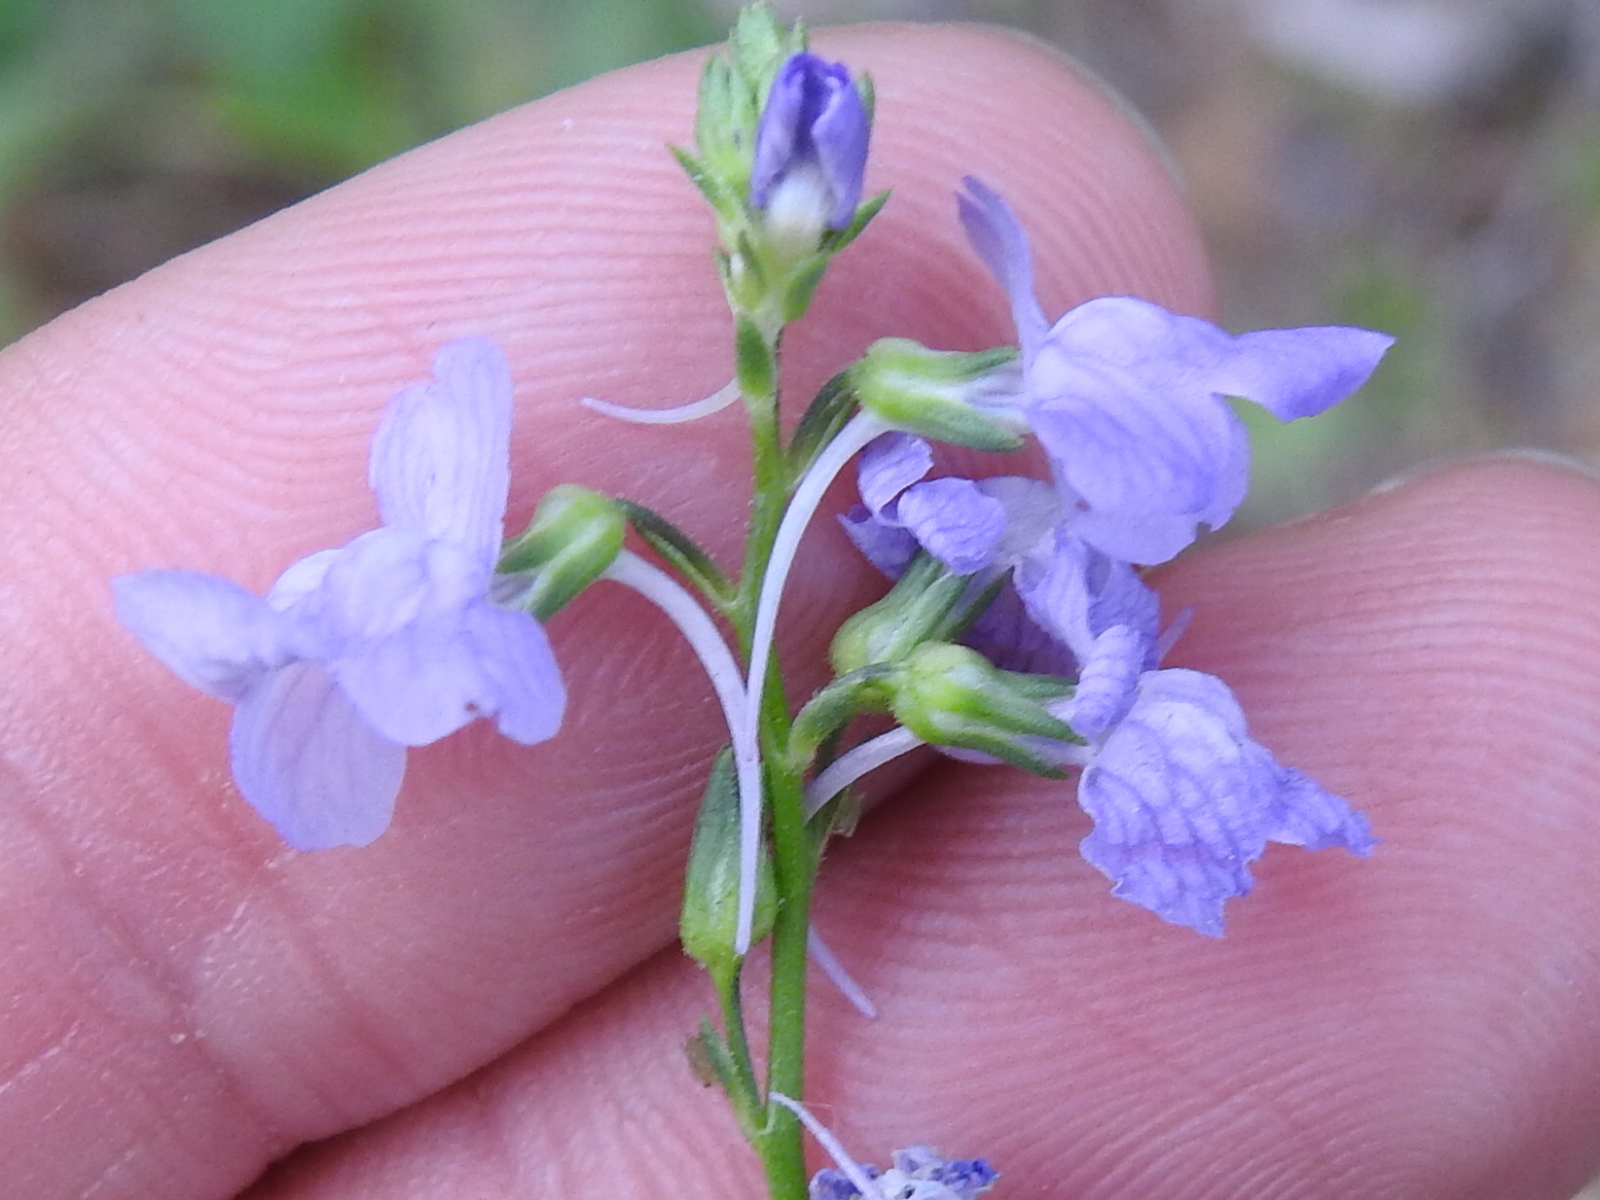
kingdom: Plantae
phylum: Tracheophyta
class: Magnoliopsida
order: Lamiales
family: Plantaginaceae
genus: Nuttallanthus
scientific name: Nuttallanthus texanus
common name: Texas toadflax
